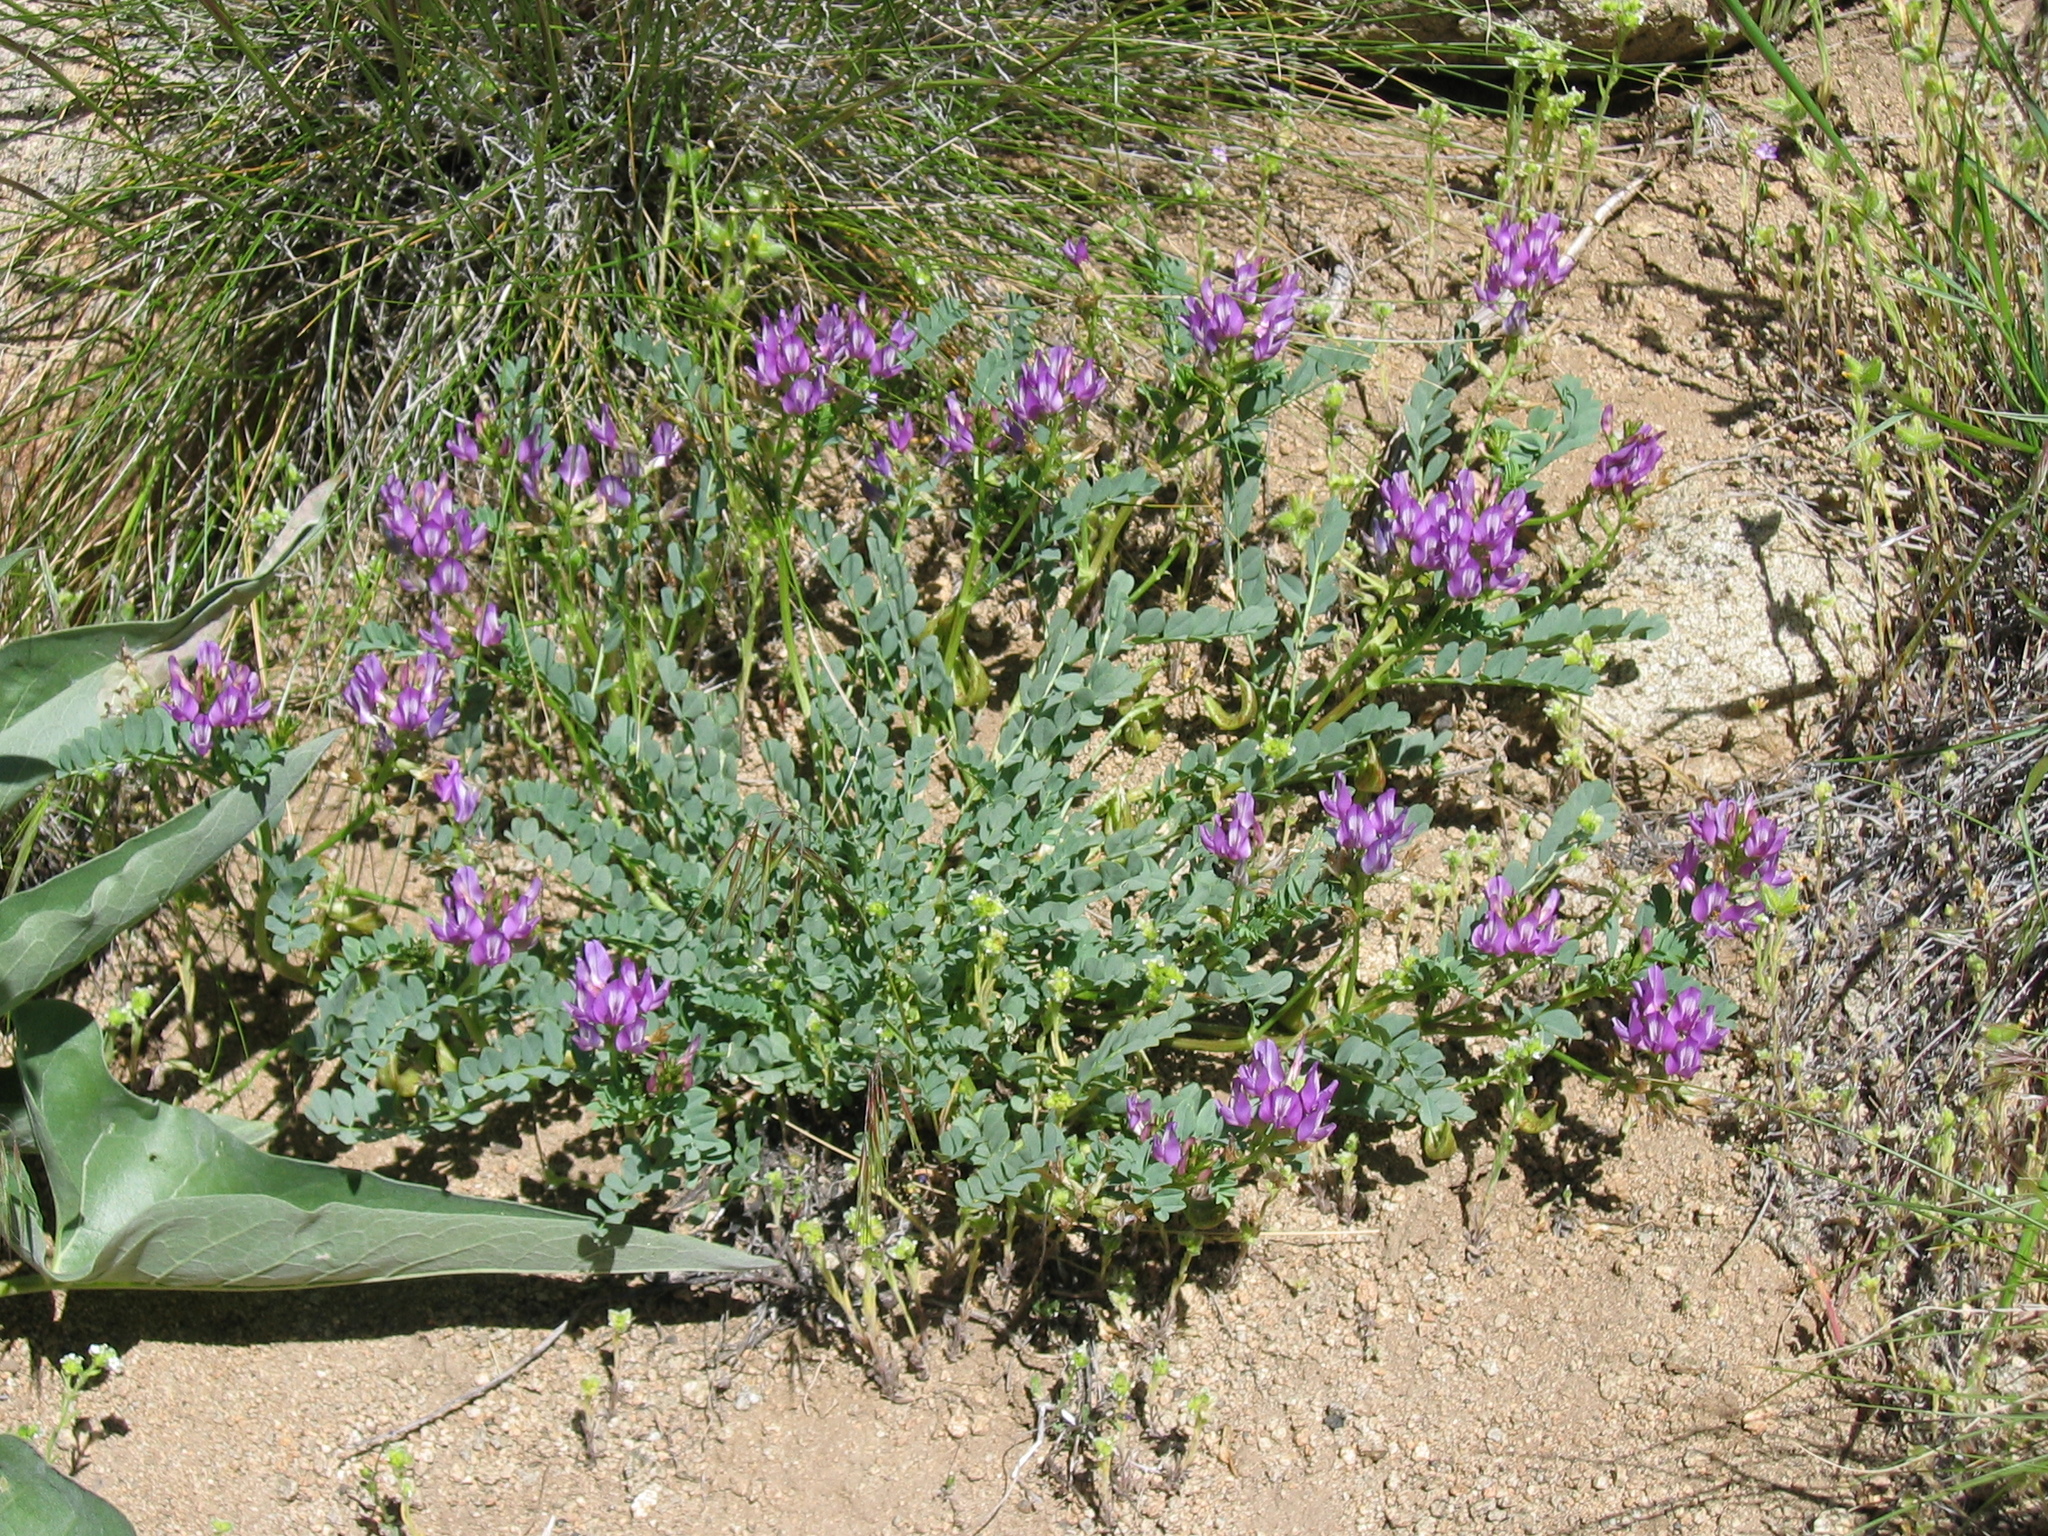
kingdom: Plantae
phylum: Tracheophyta
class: Magnoliopsida
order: Fabales
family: Fabaceae
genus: Astragalus
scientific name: Astragalus lentiginosus
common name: Freckled milkvetch
